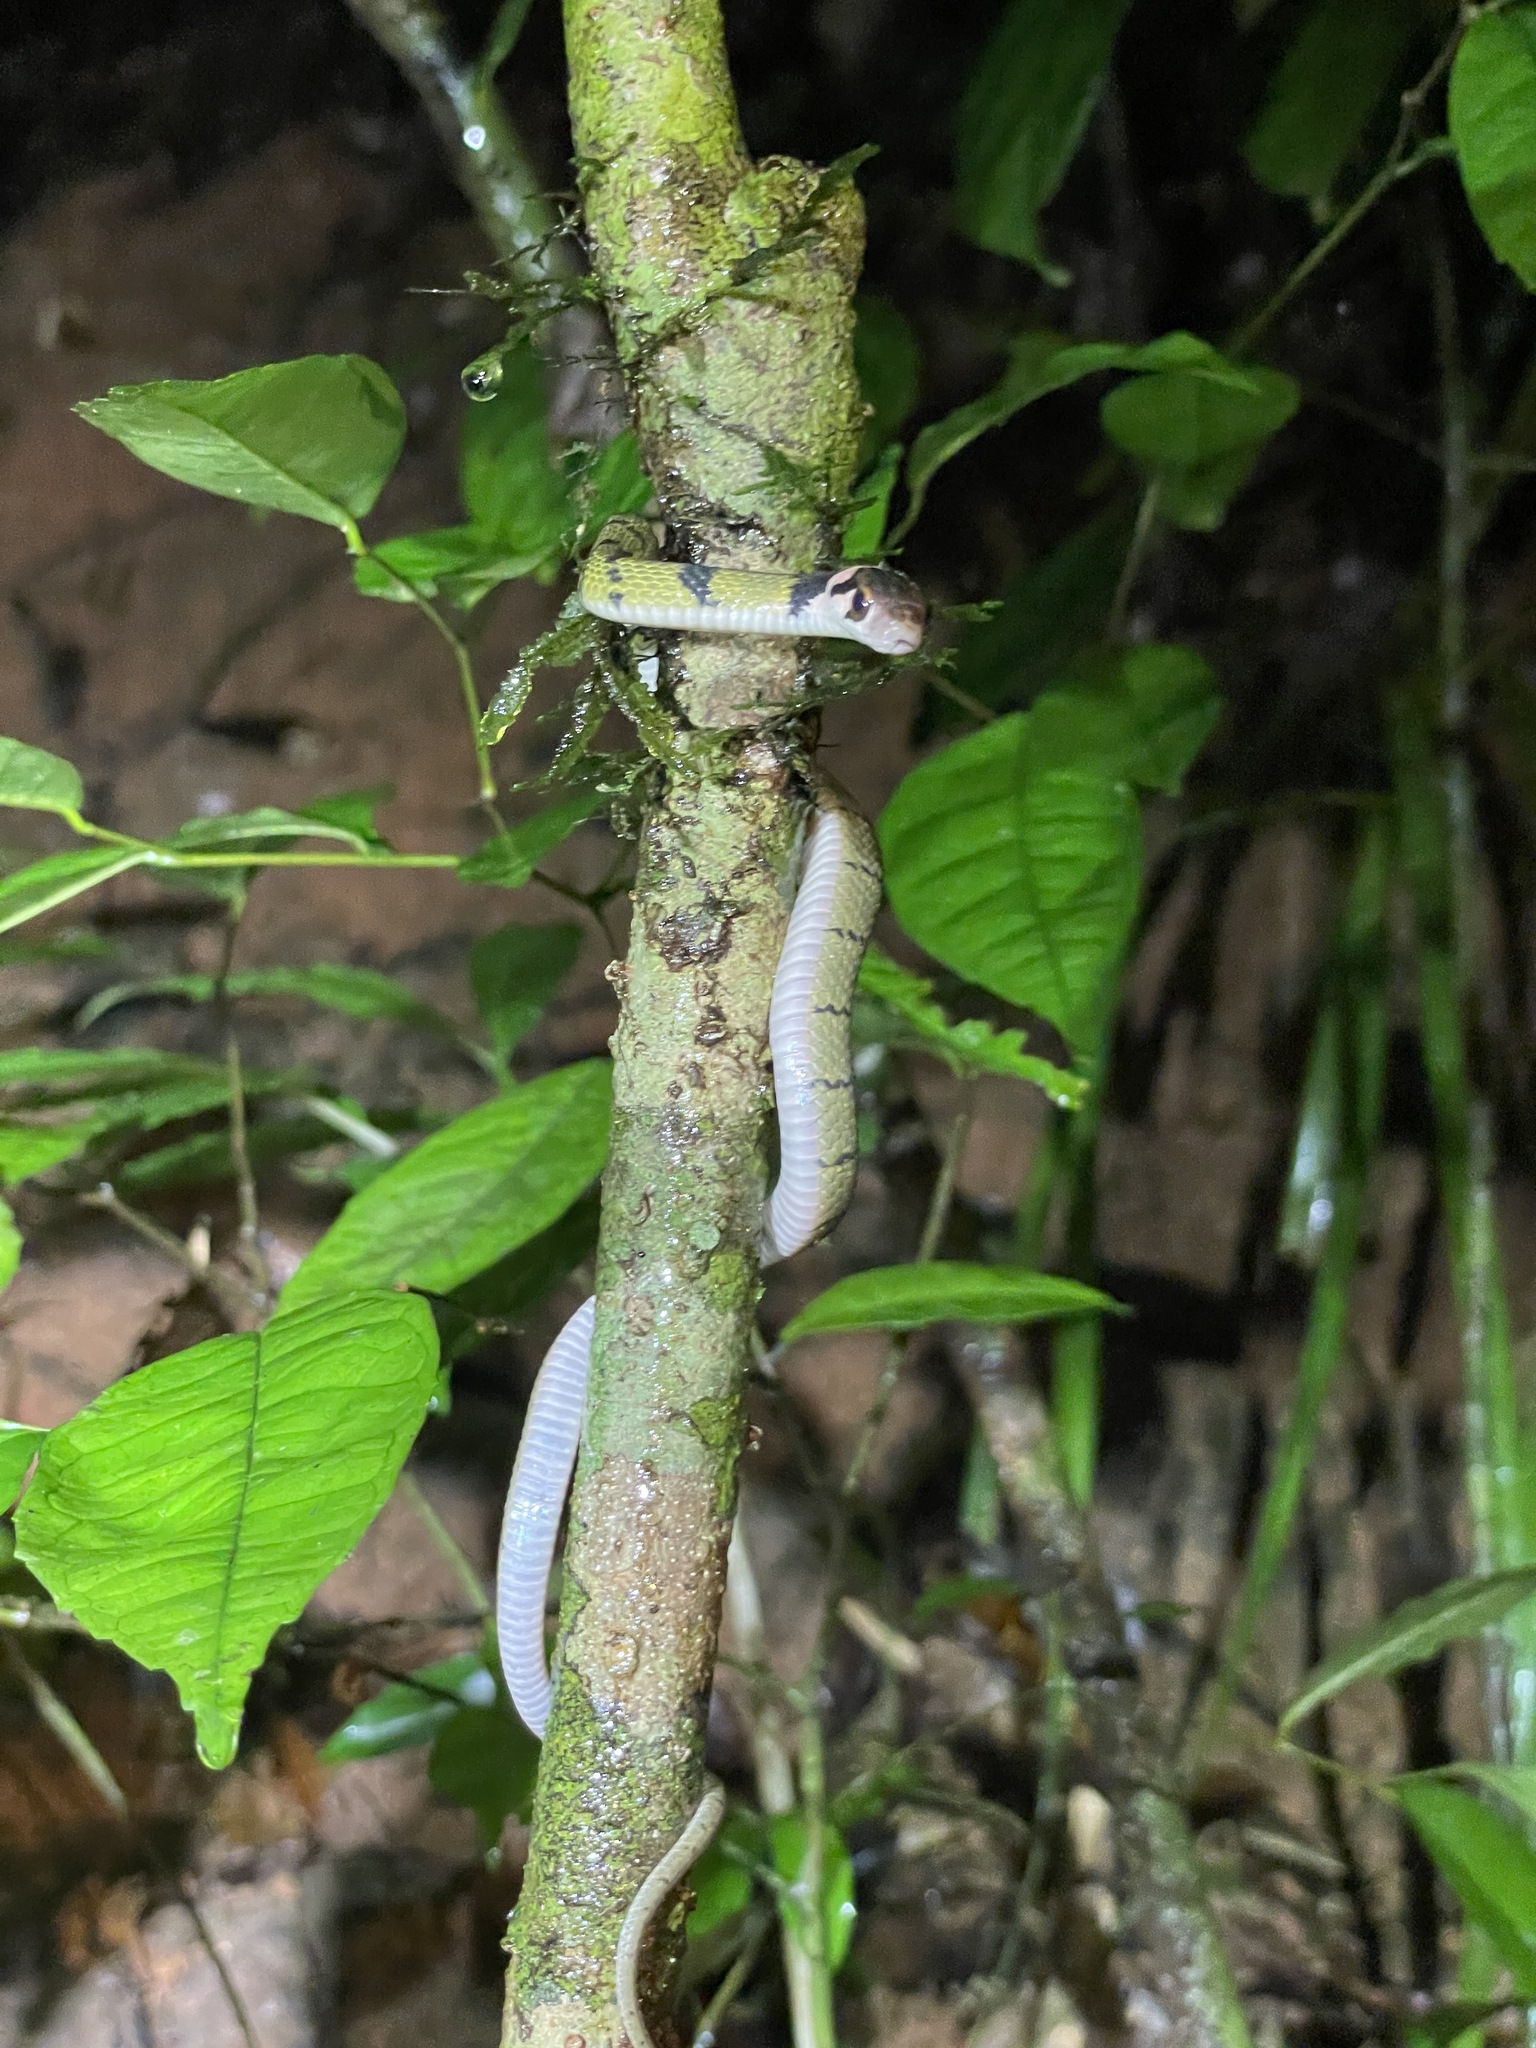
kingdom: Animalia
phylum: Chordata
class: Squamata
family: Colubridae
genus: Rhabdophis
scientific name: Rhabdophis nigrocinctus
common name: Green keelback
